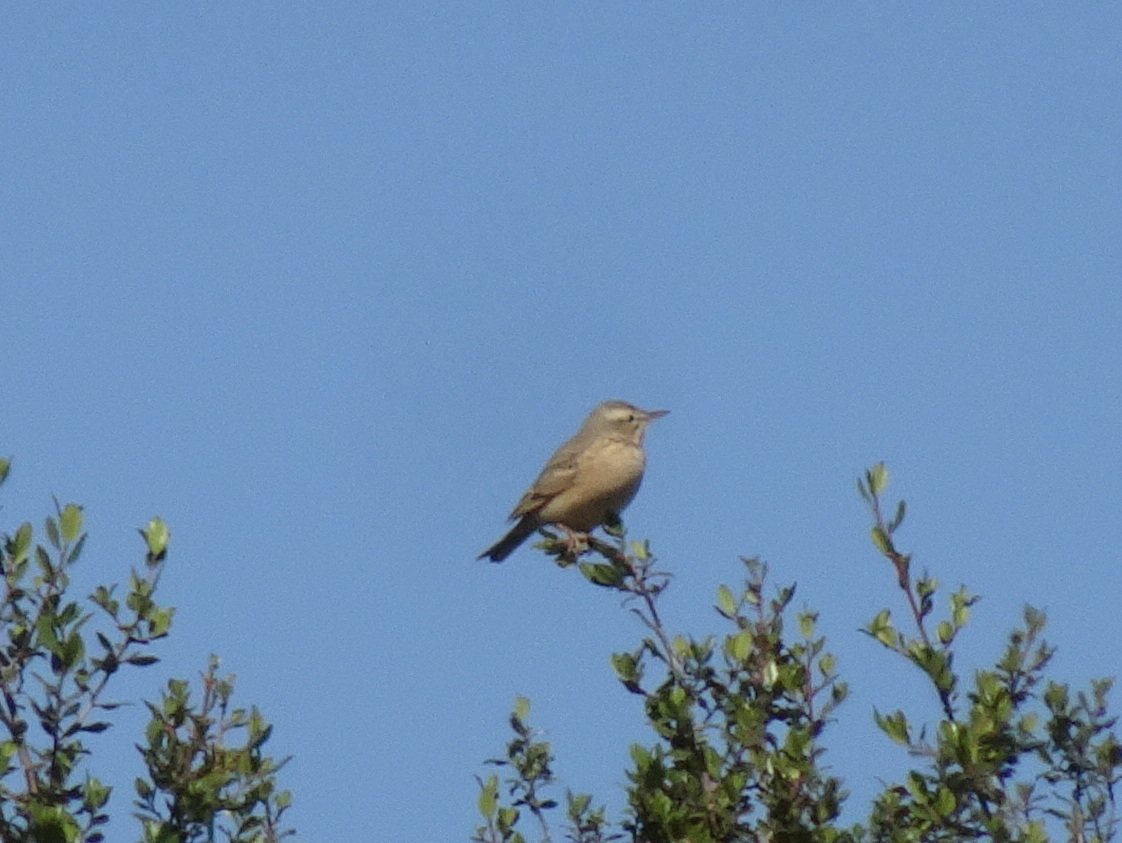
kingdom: Animalia
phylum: Chordata
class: Aves
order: Passeriformes
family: Motacillidae
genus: Anthus
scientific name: Anthus campestris
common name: Tawny pipit
